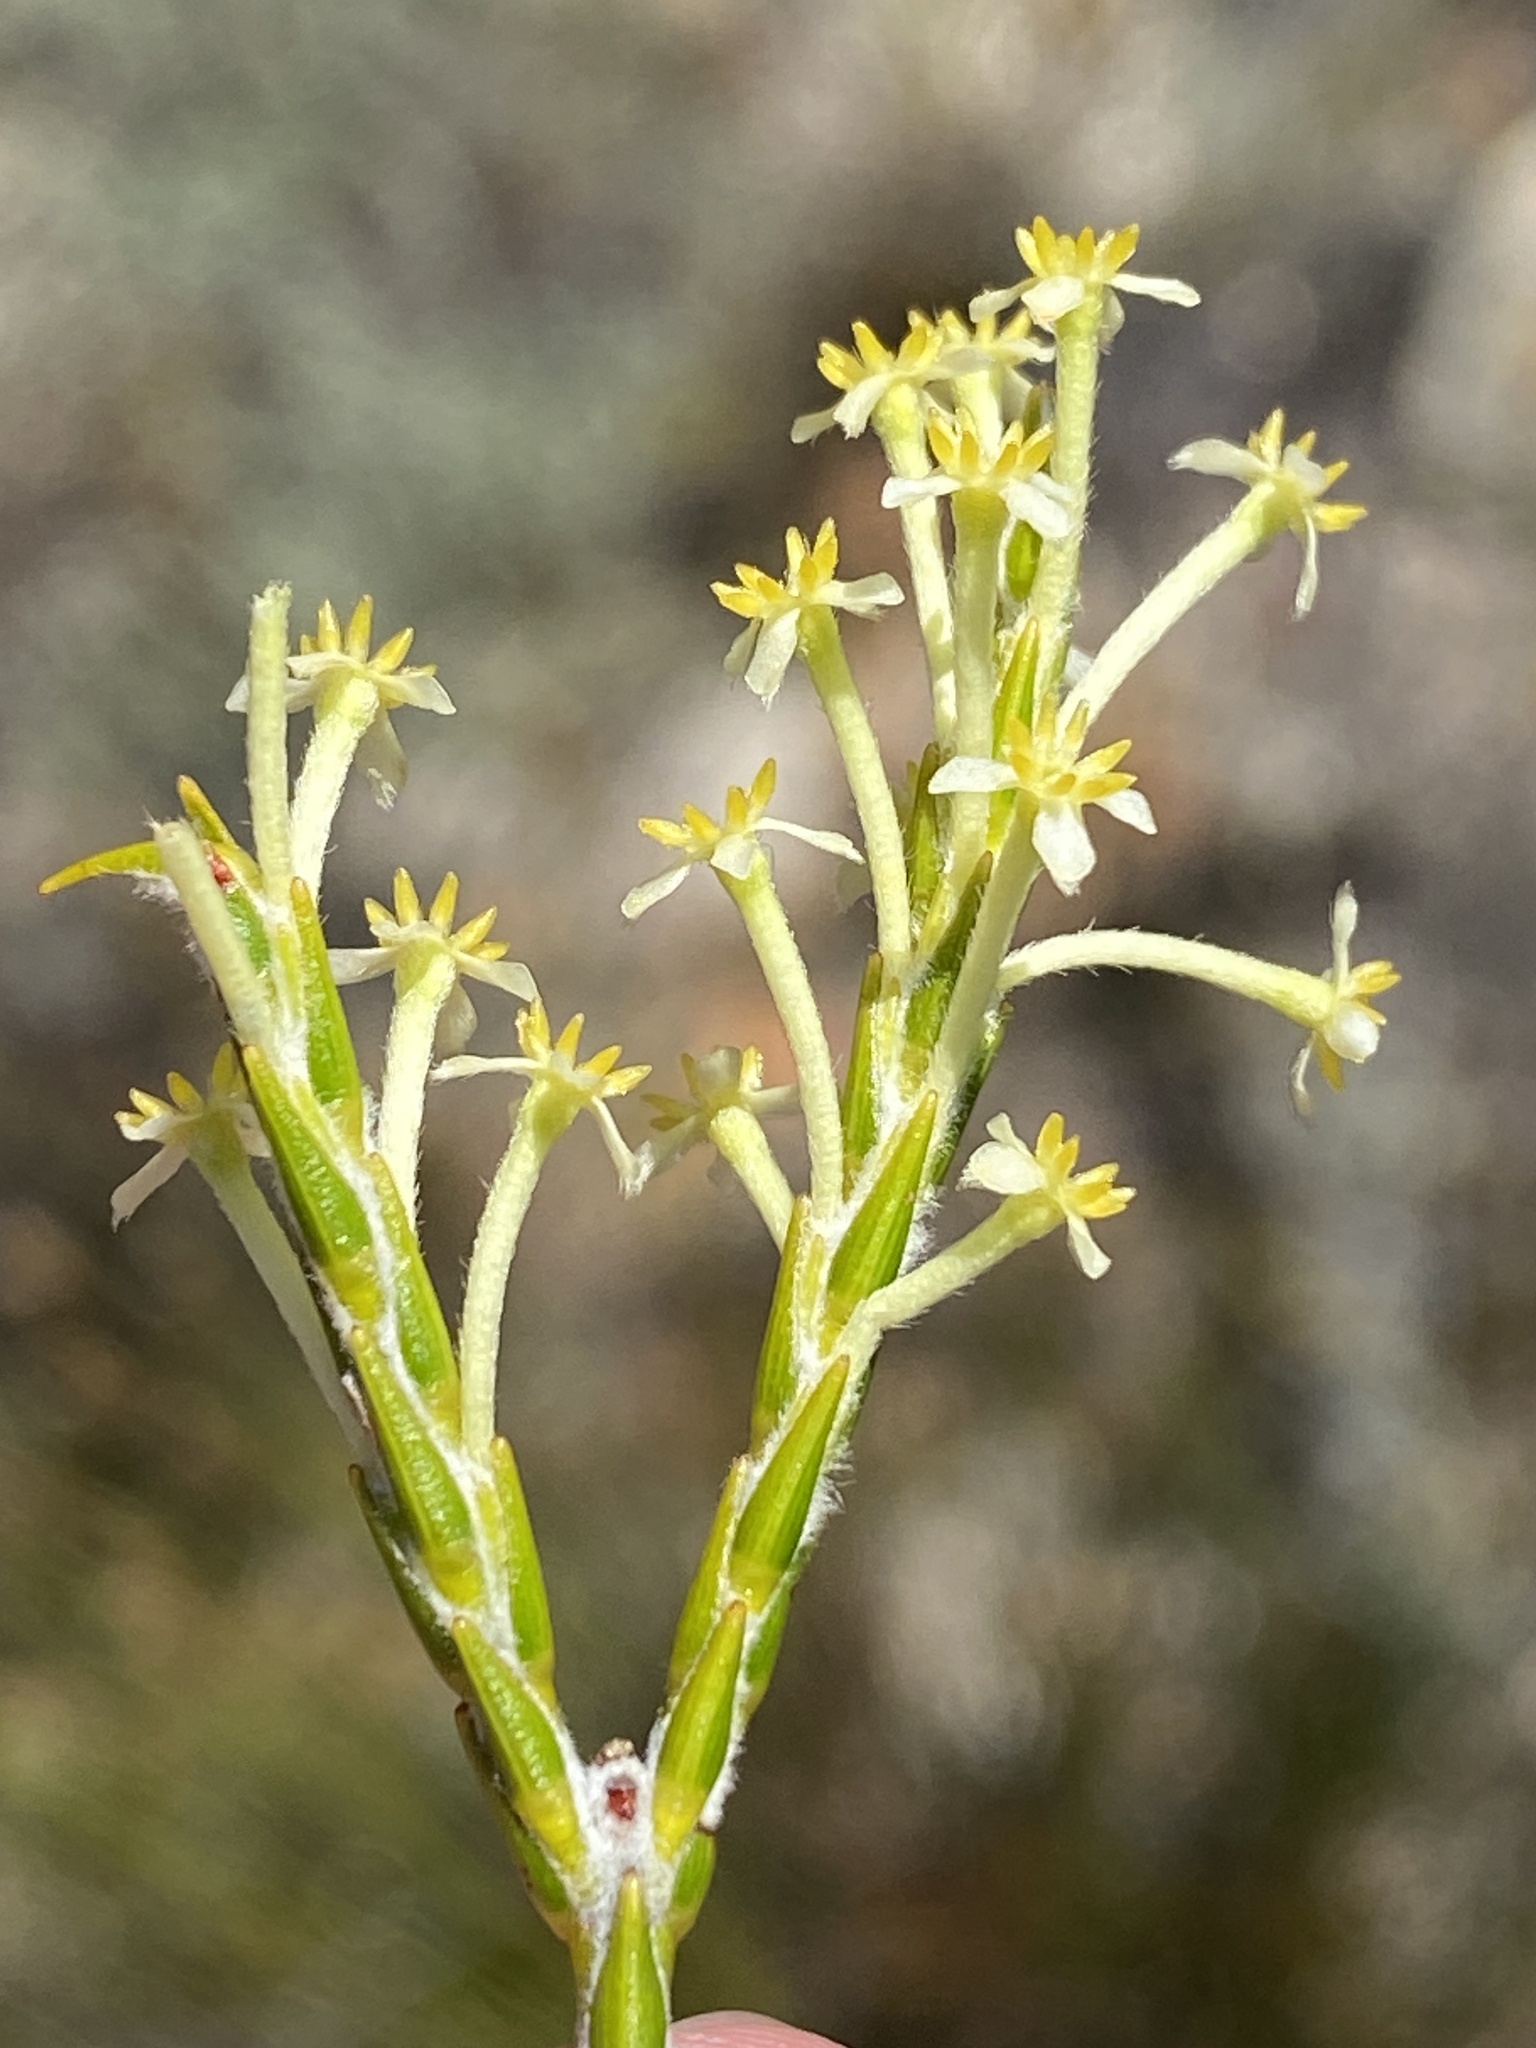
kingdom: Plantae
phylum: Tracheophyta
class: Magnoliopsida
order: Malvales
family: Thymelaeaceae
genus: Struthiola
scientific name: Struthiola ciliata
